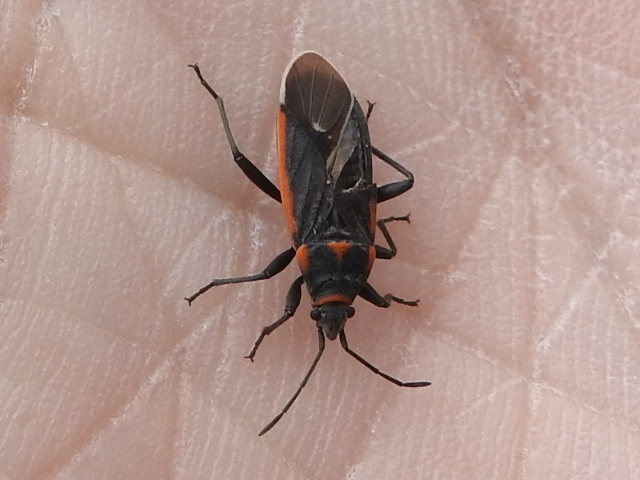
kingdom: Animalia
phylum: Arthropoda
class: Insecta
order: Hemiptera
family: Lygaeidae
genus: Melacoryphus
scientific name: Melacoryphus lateralis
